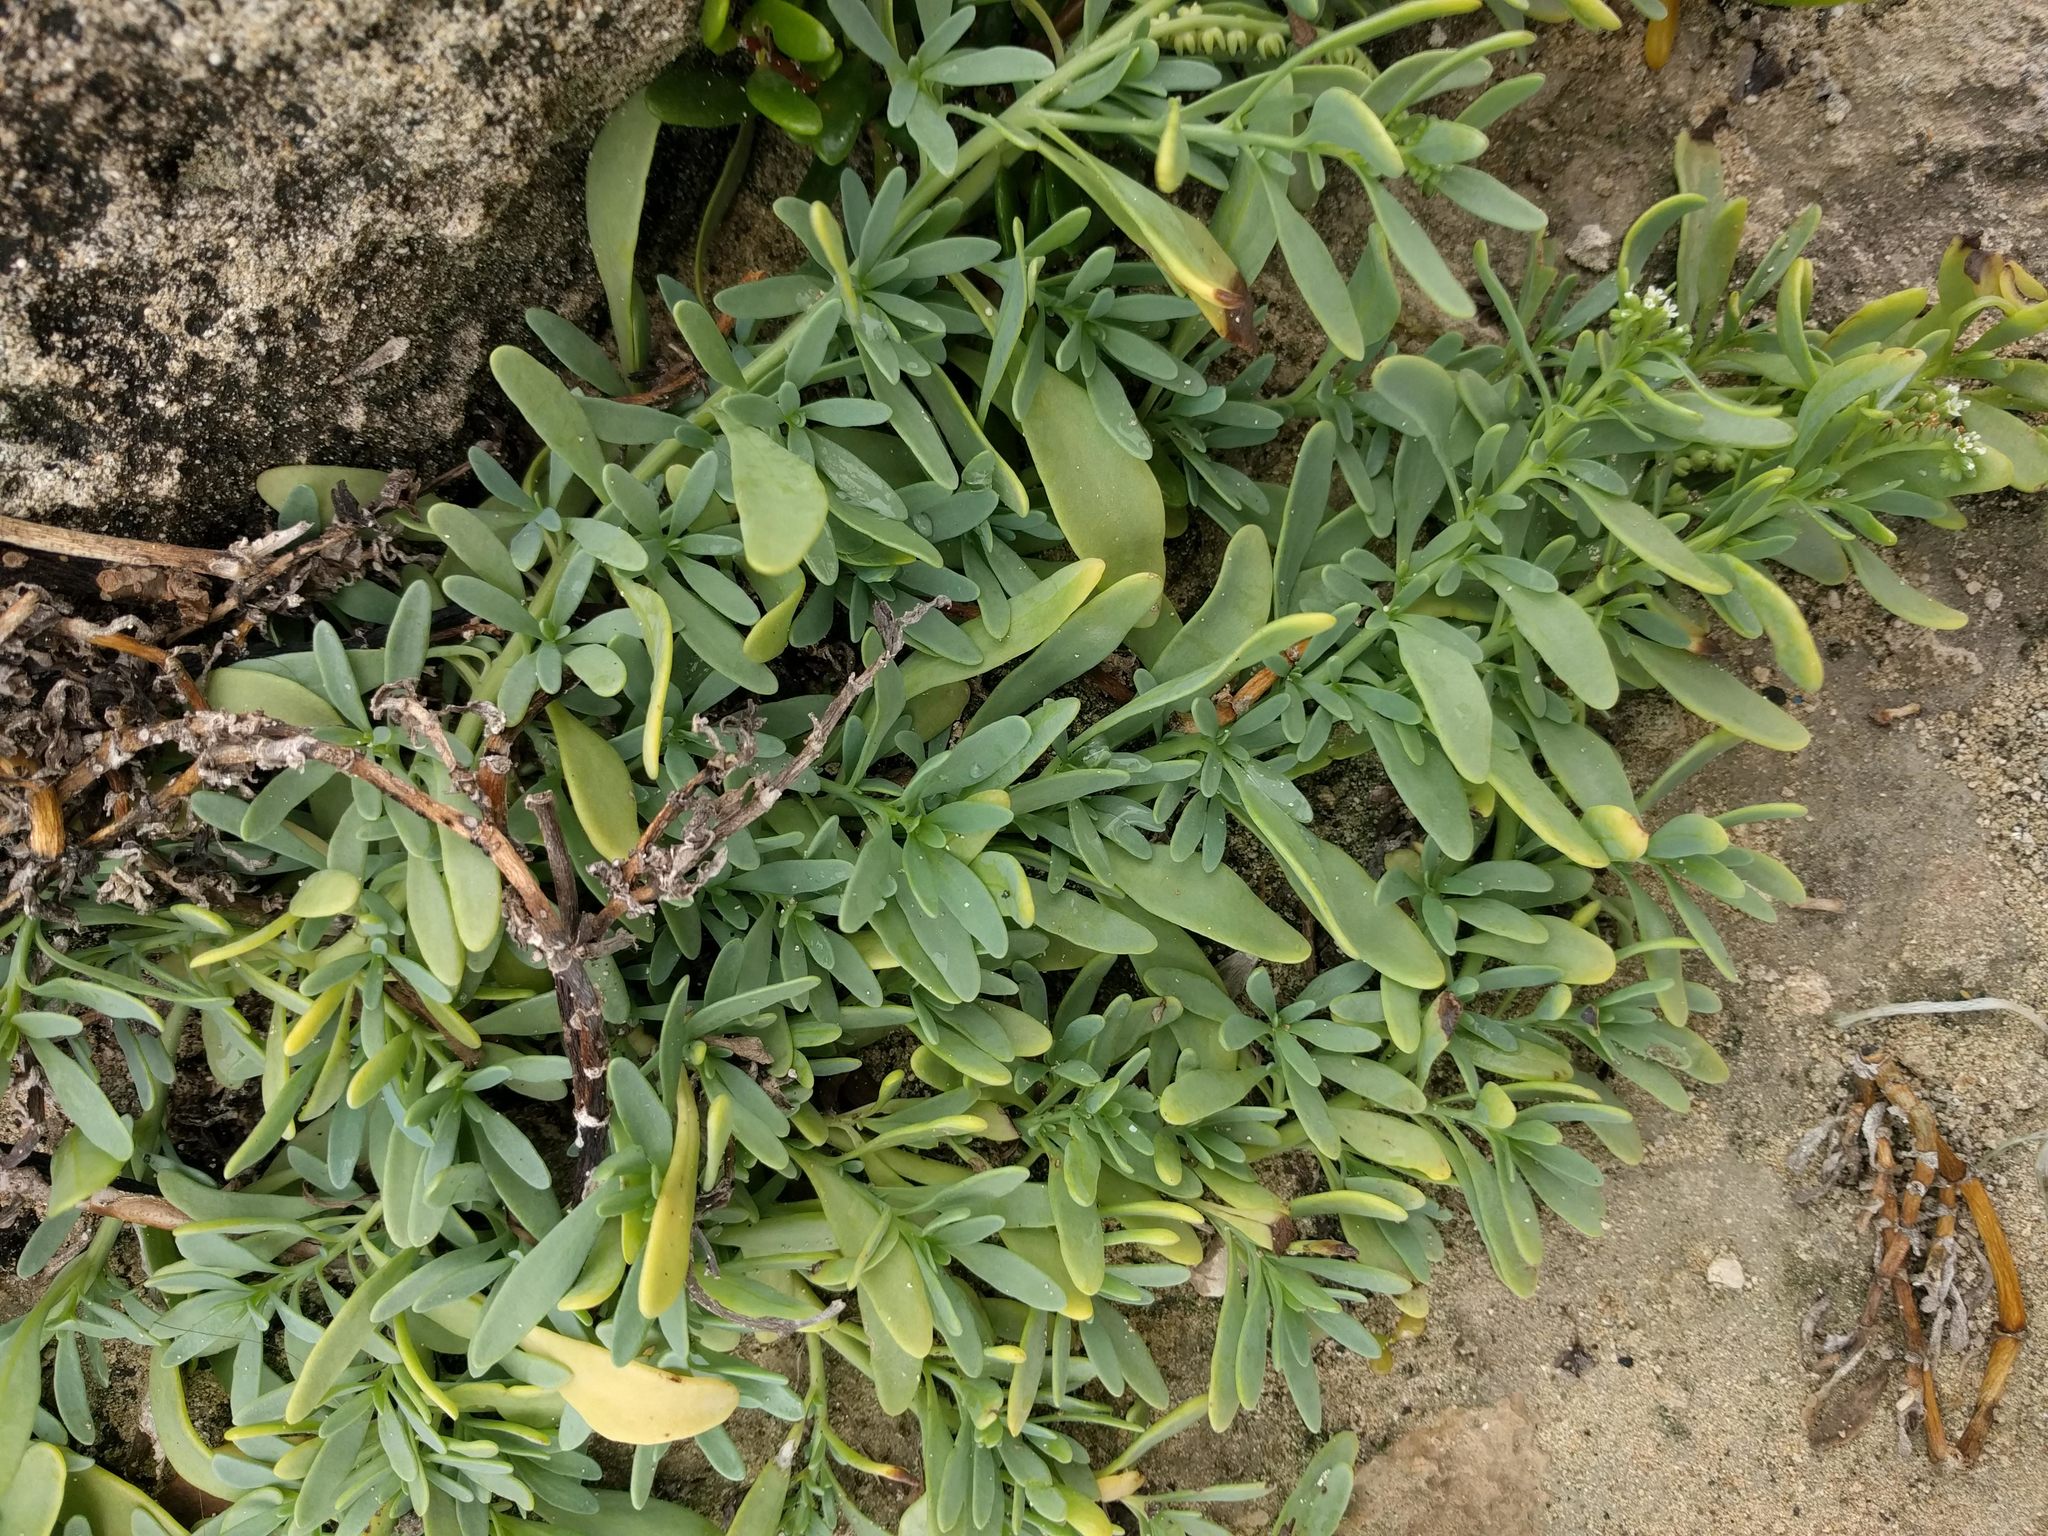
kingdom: Plantae
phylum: Tracheophyta
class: Magnoliopsida
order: Boraginales
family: Heliotropiaceae
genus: Heliotropium
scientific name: Heliotropium curassavicum
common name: Seaside heliotrope
